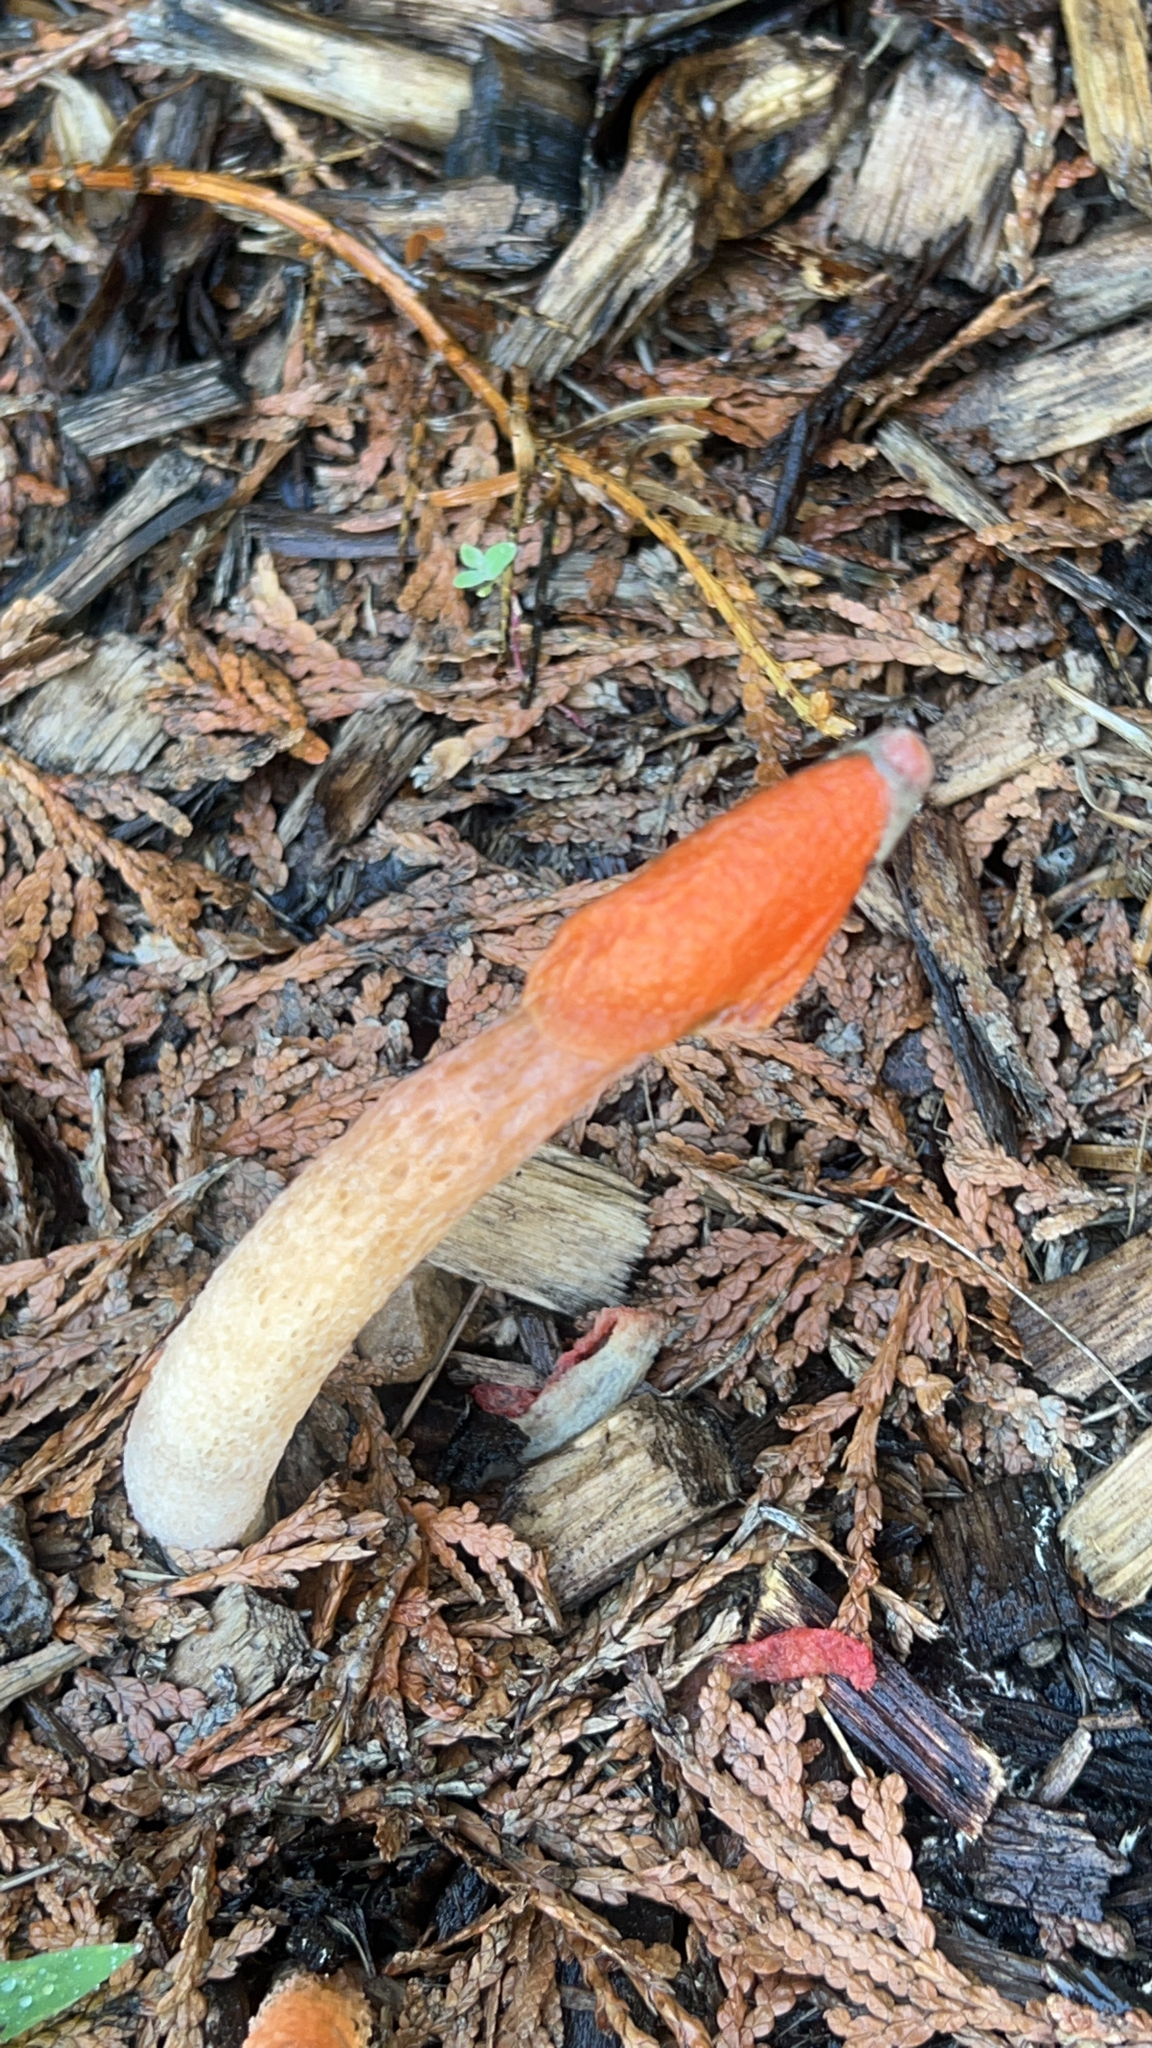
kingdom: Fungi
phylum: Basidiomycota
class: Agaricomycetes
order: Phallales
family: Phallaceae
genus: Phallus
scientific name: Phallus rugulosus
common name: Wrinkly stinkhorn
